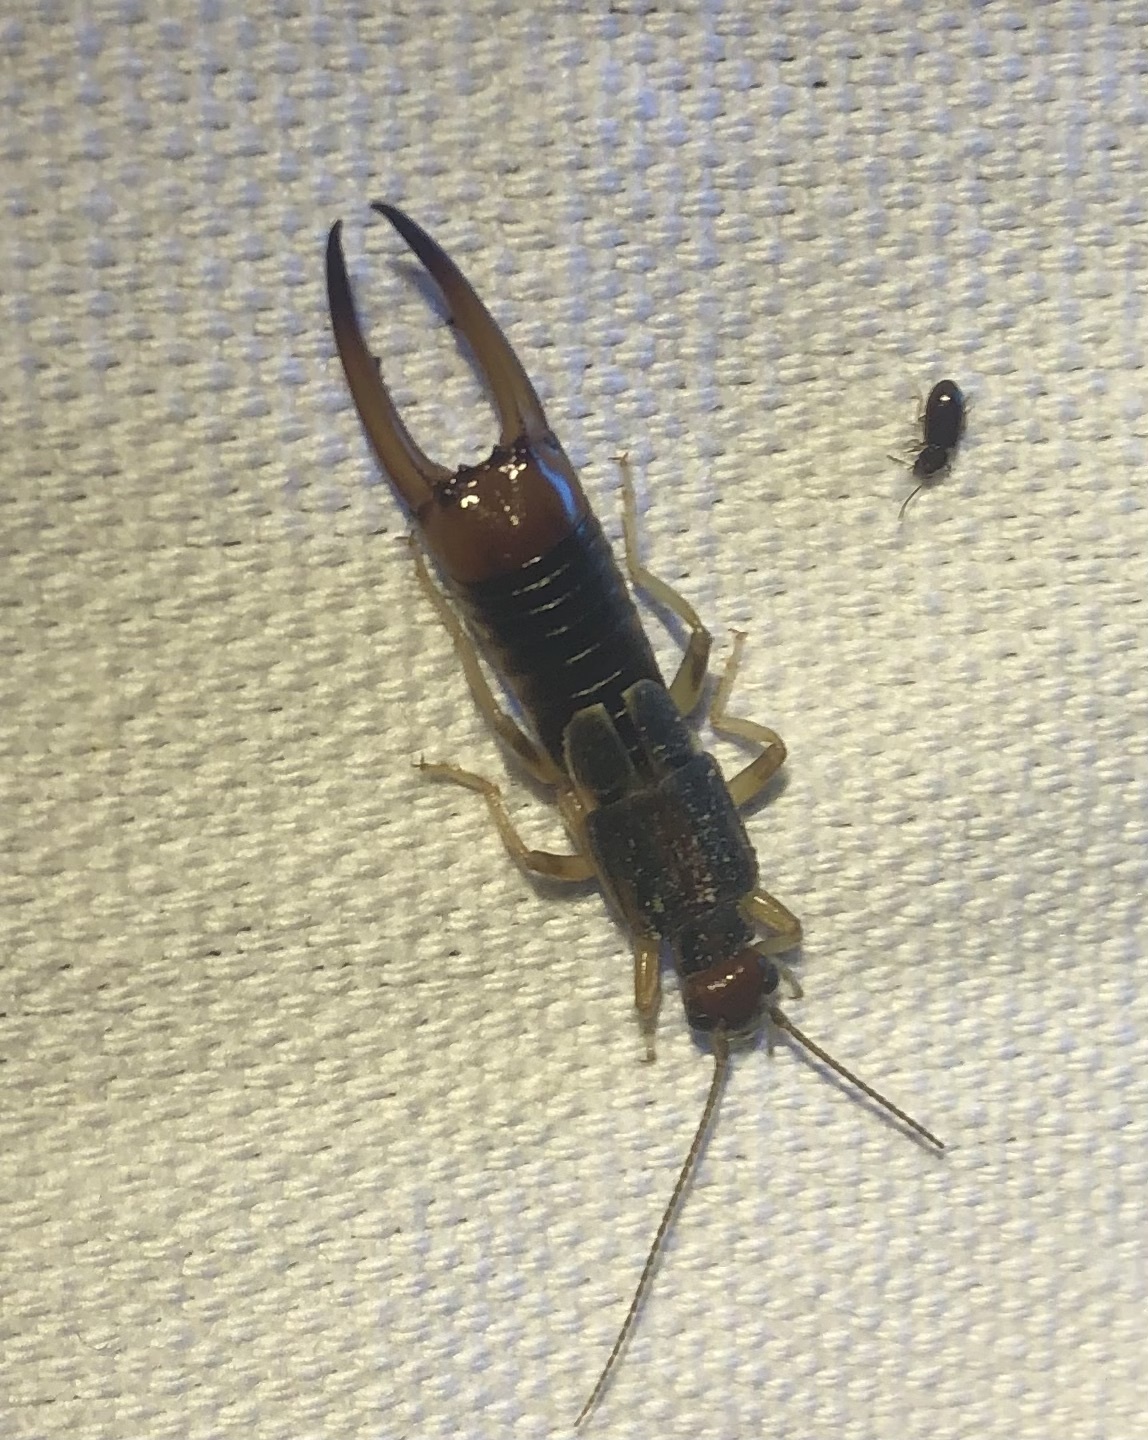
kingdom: Animalia
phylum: Arthropoda
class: Insecta
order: Dermaptera
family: Labiduridae
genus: Labidura
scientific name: Labidura riparia
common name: Striped earwig
